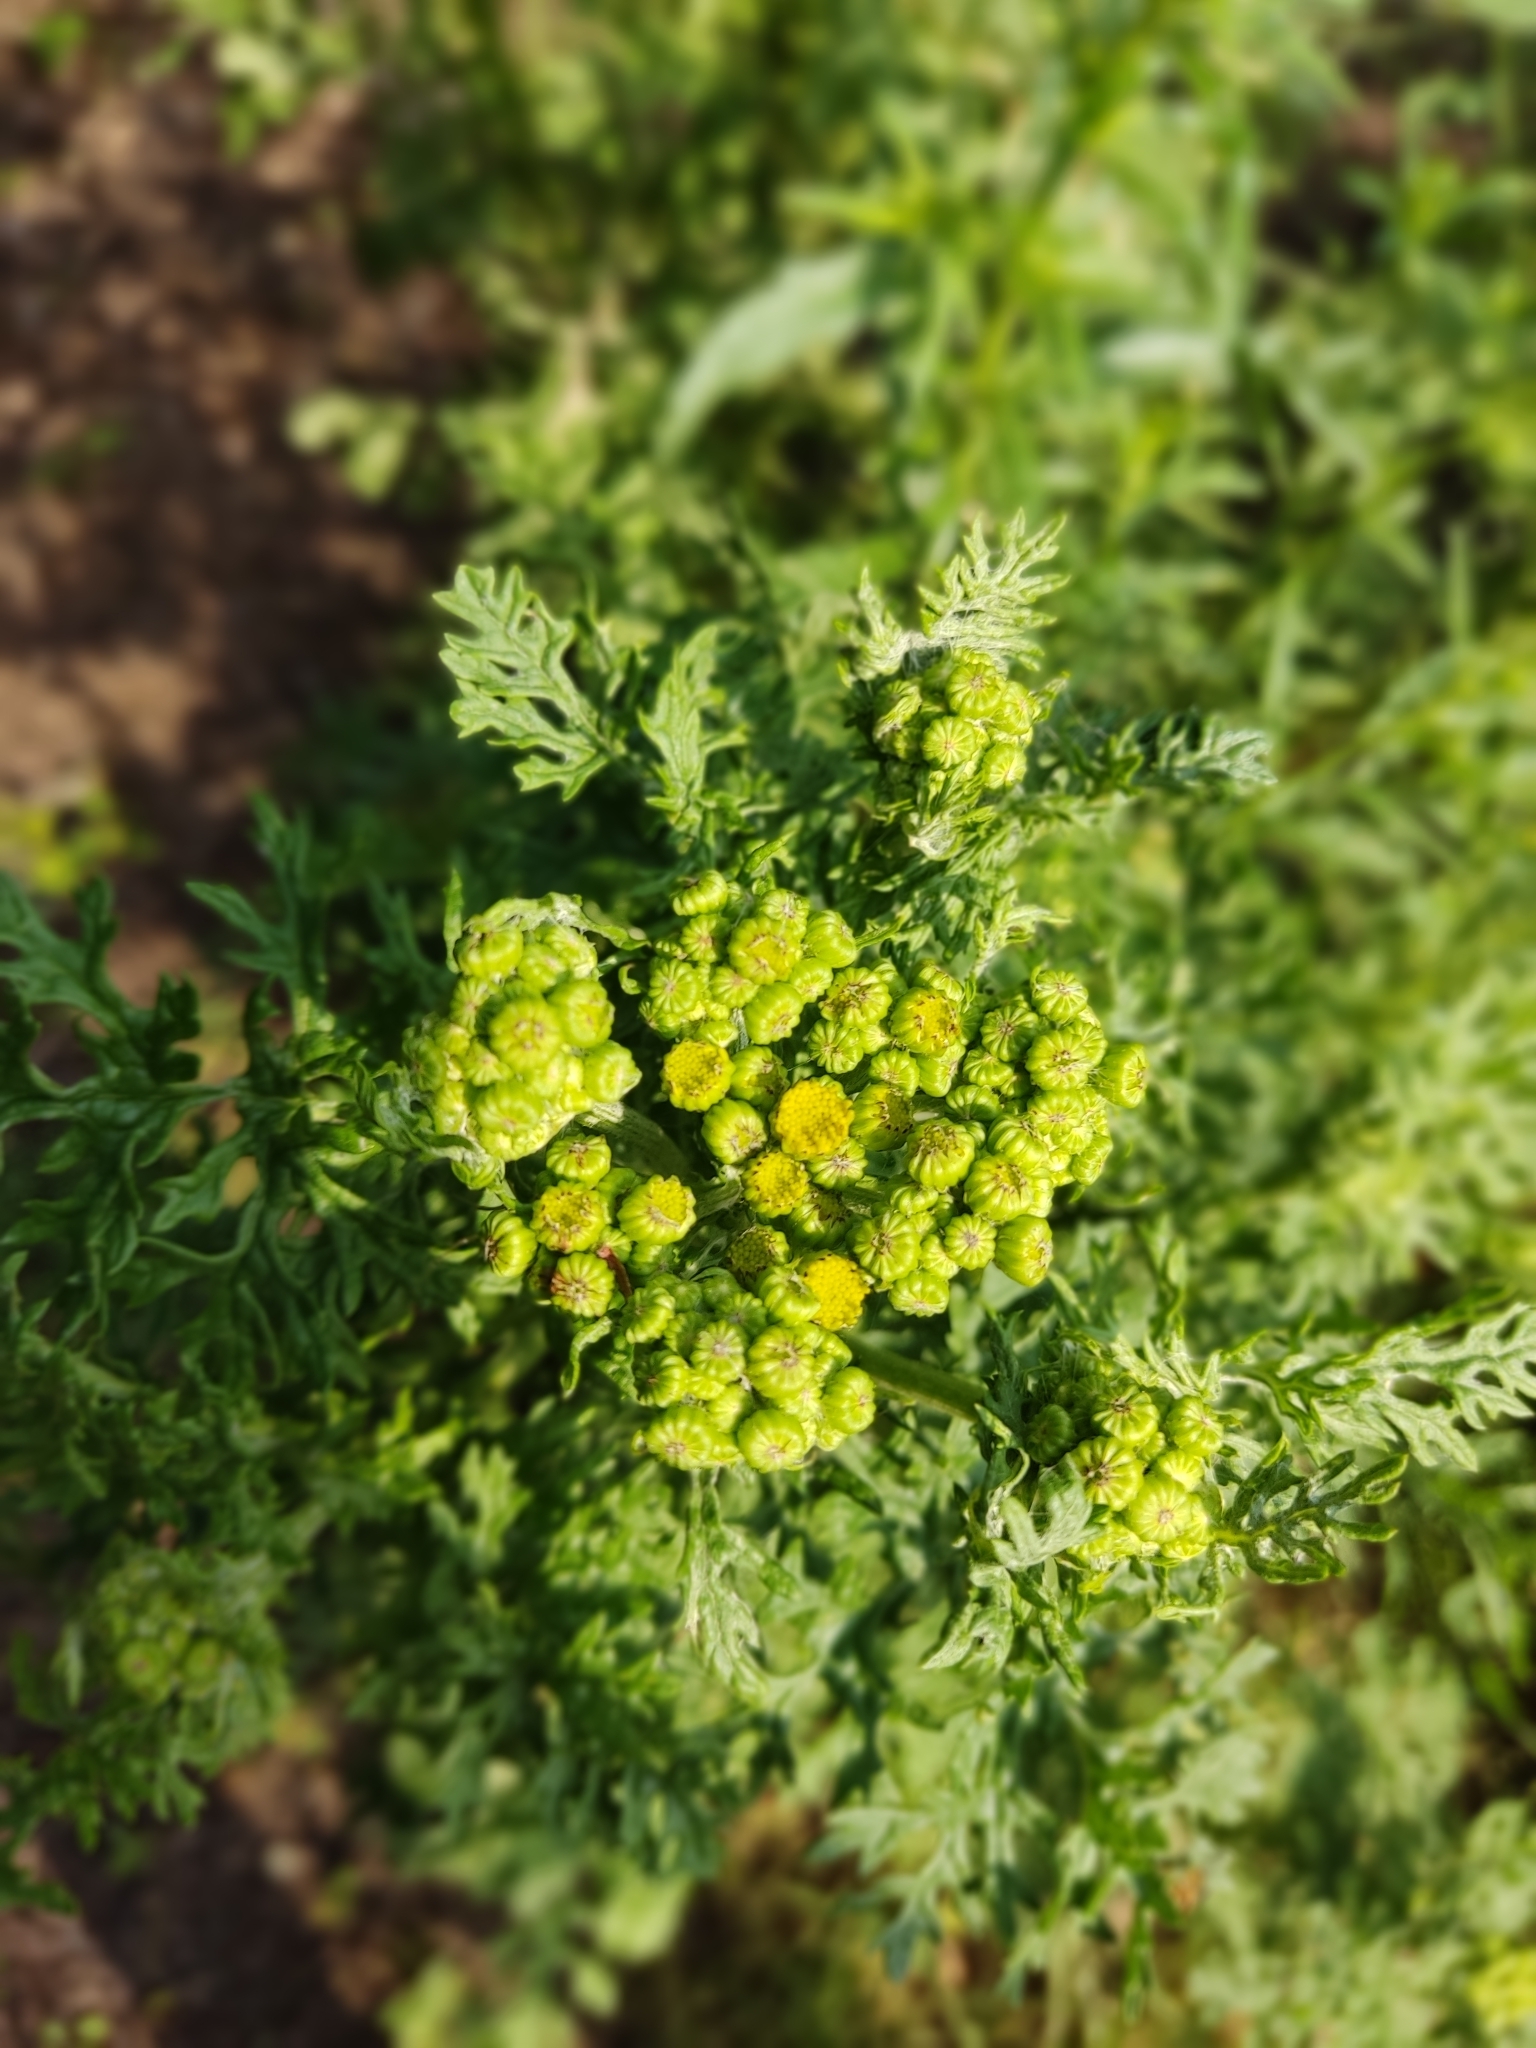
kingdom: Plantae
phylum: Tracheophyta
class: Magnoliopsida
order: Asterales
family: Asteraceae
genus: Jacobaea
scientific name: Jacobaea vulgaris
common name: Stinking willie
